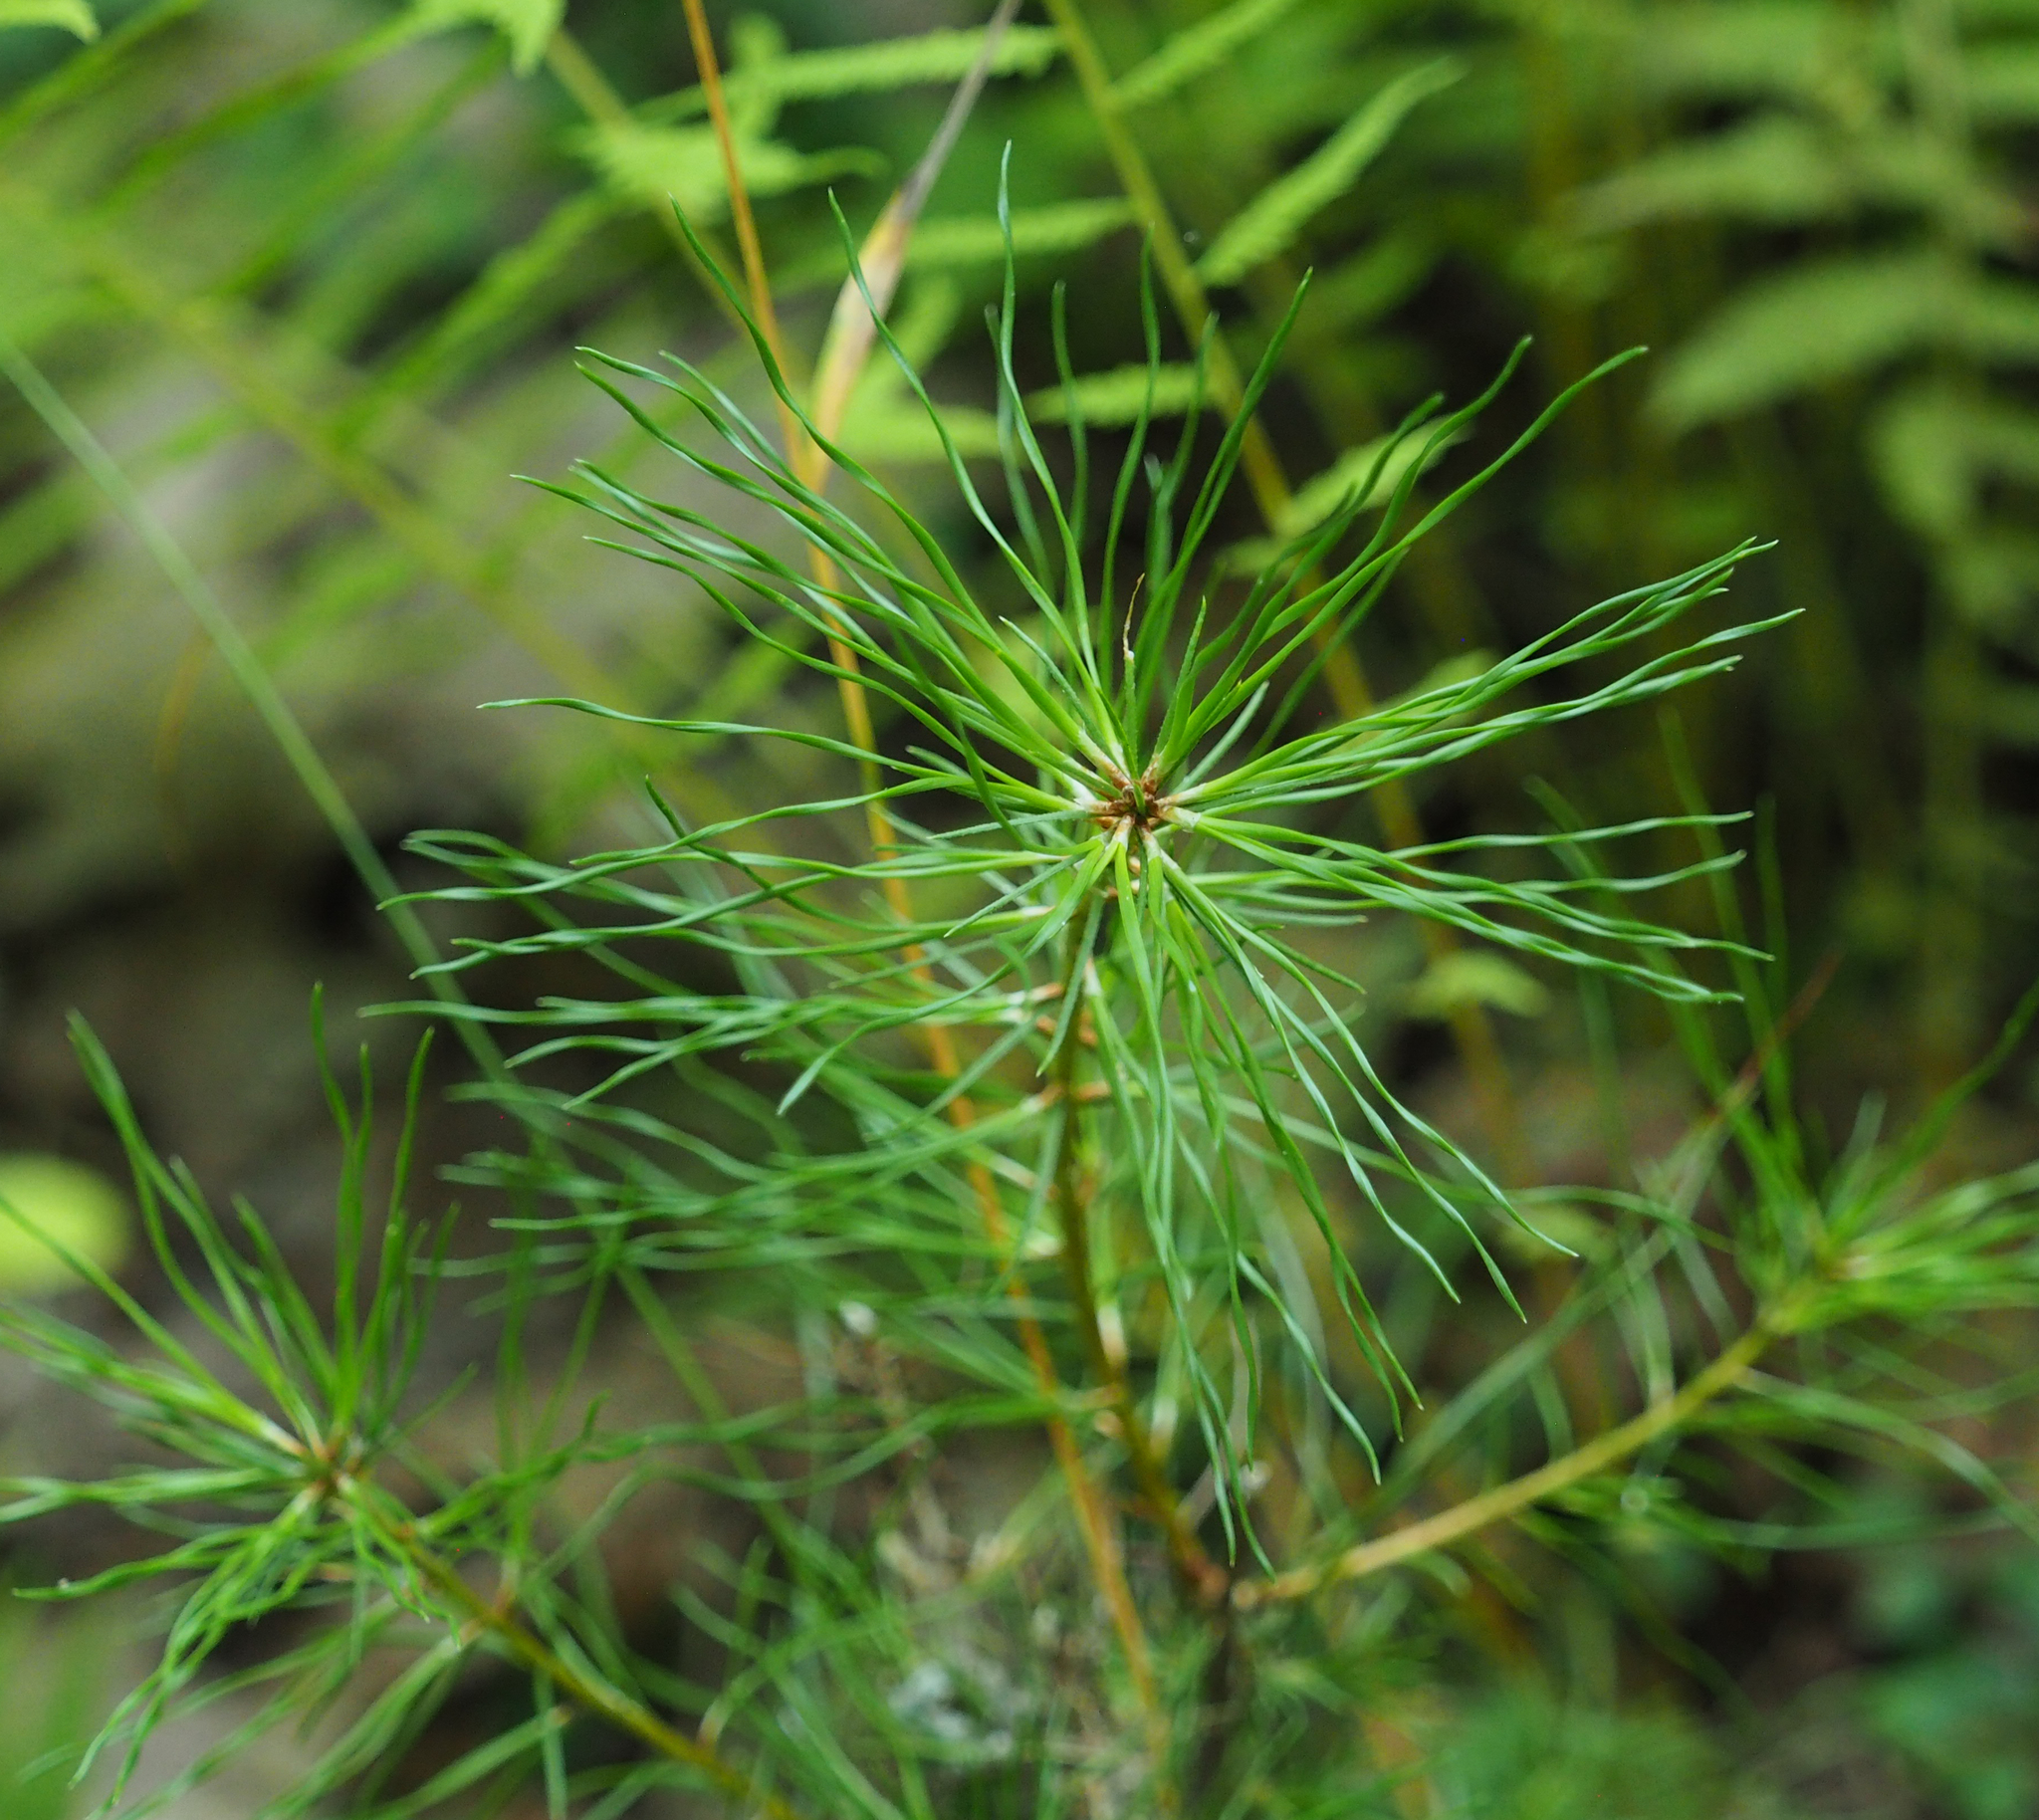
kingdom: Plantae
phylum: Tracheophyta
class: Pinopsida
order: Pinales
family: Pinaceae
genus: Pinus
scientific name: Pinus rigida
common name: Pitch pine
